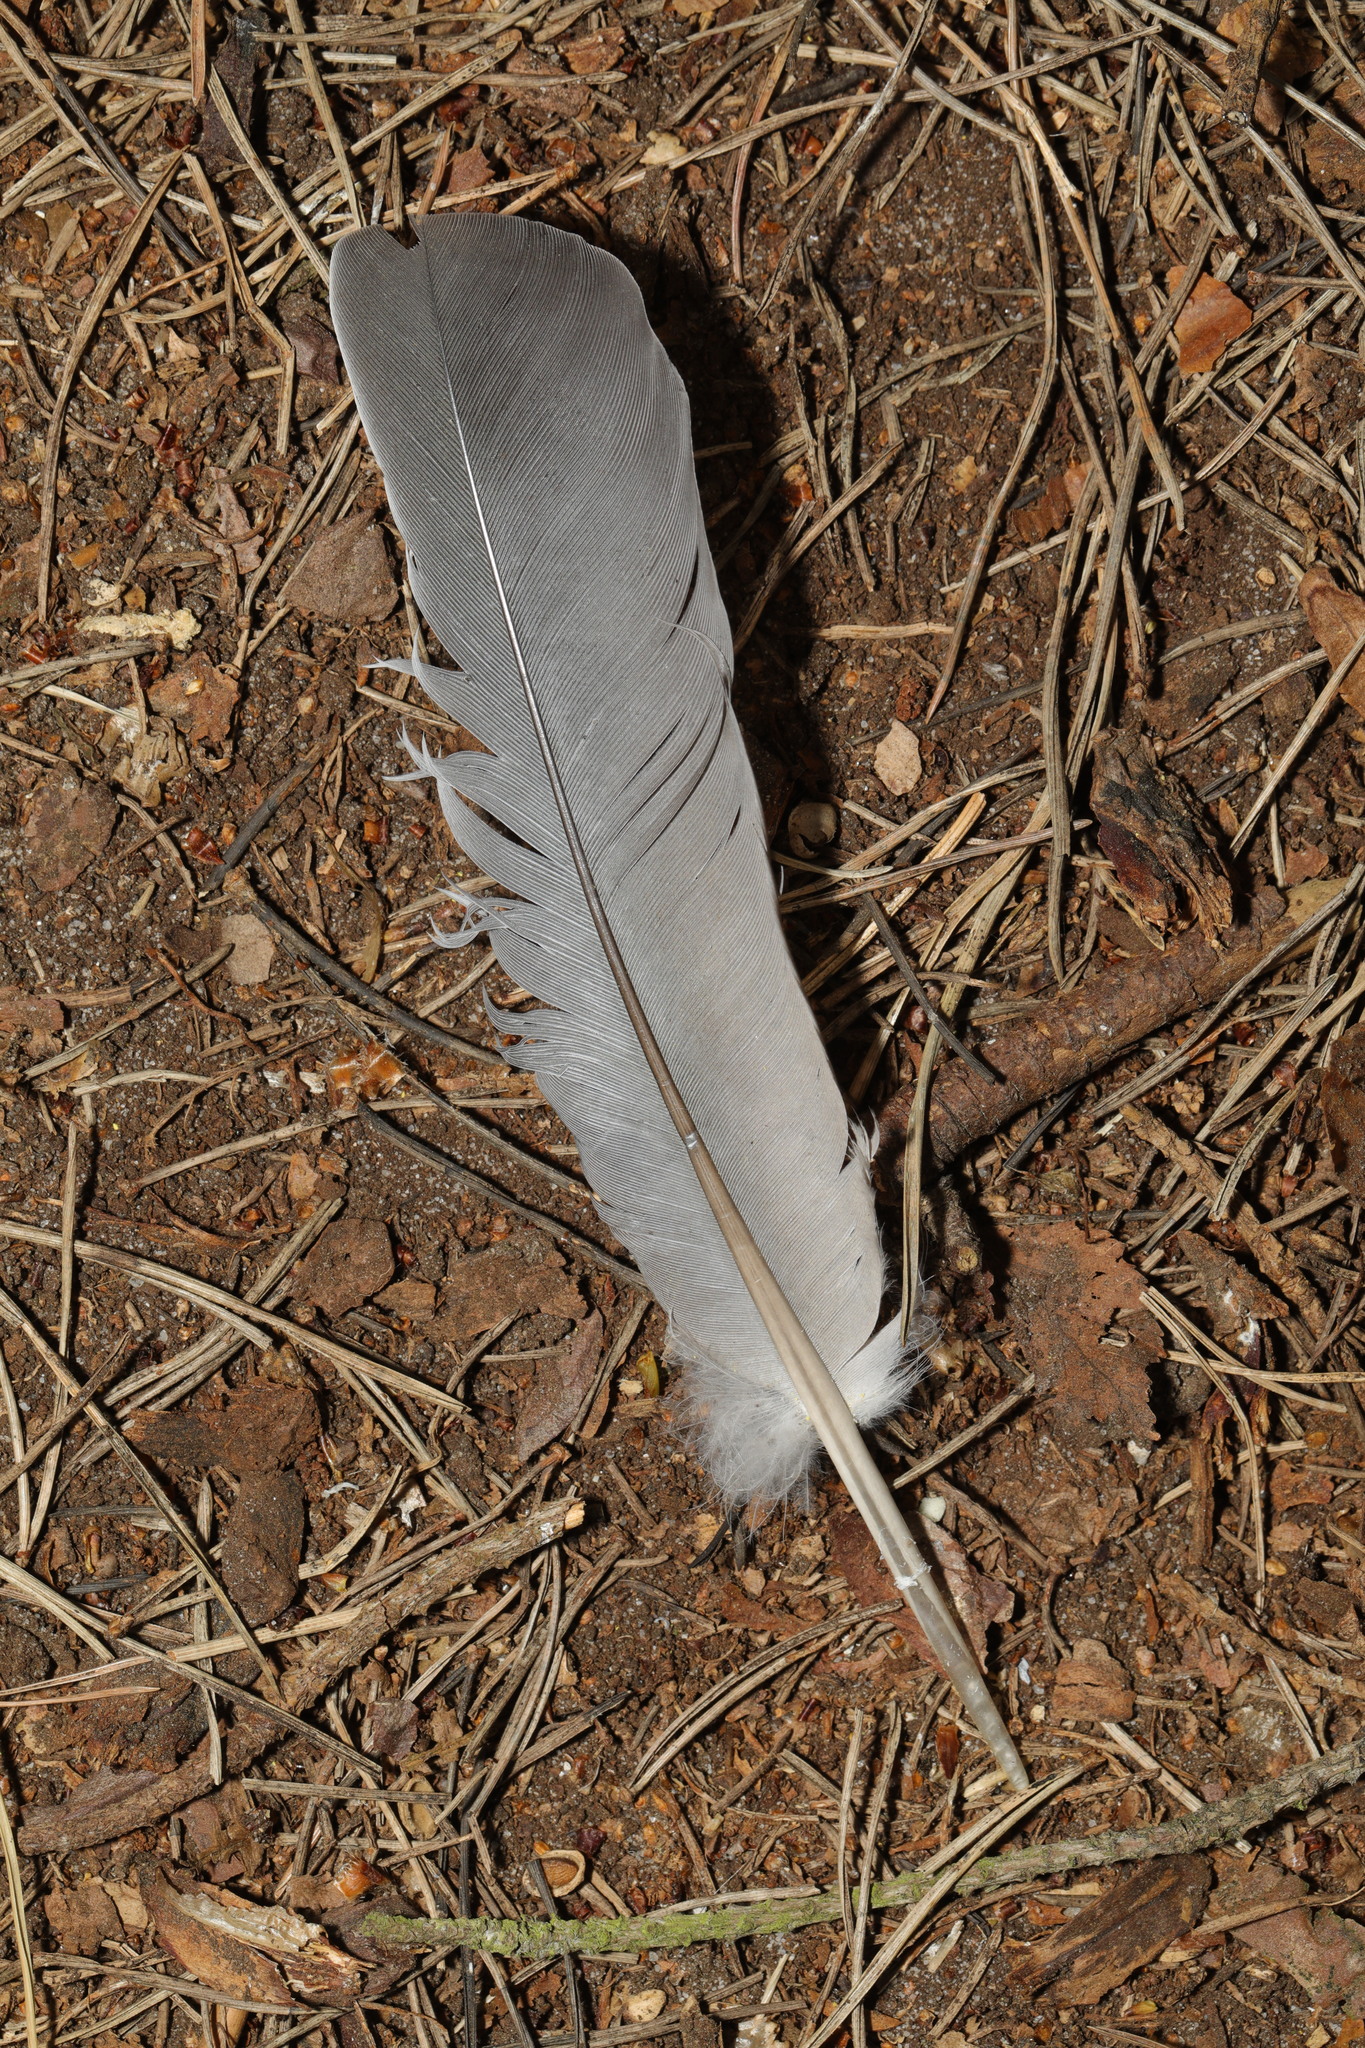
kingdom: Animalia
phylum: Chordata
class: Aves
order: Columbiformes
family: Columbidae
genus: Columba
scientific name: Columba palumbus
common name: Common wood pigeon
